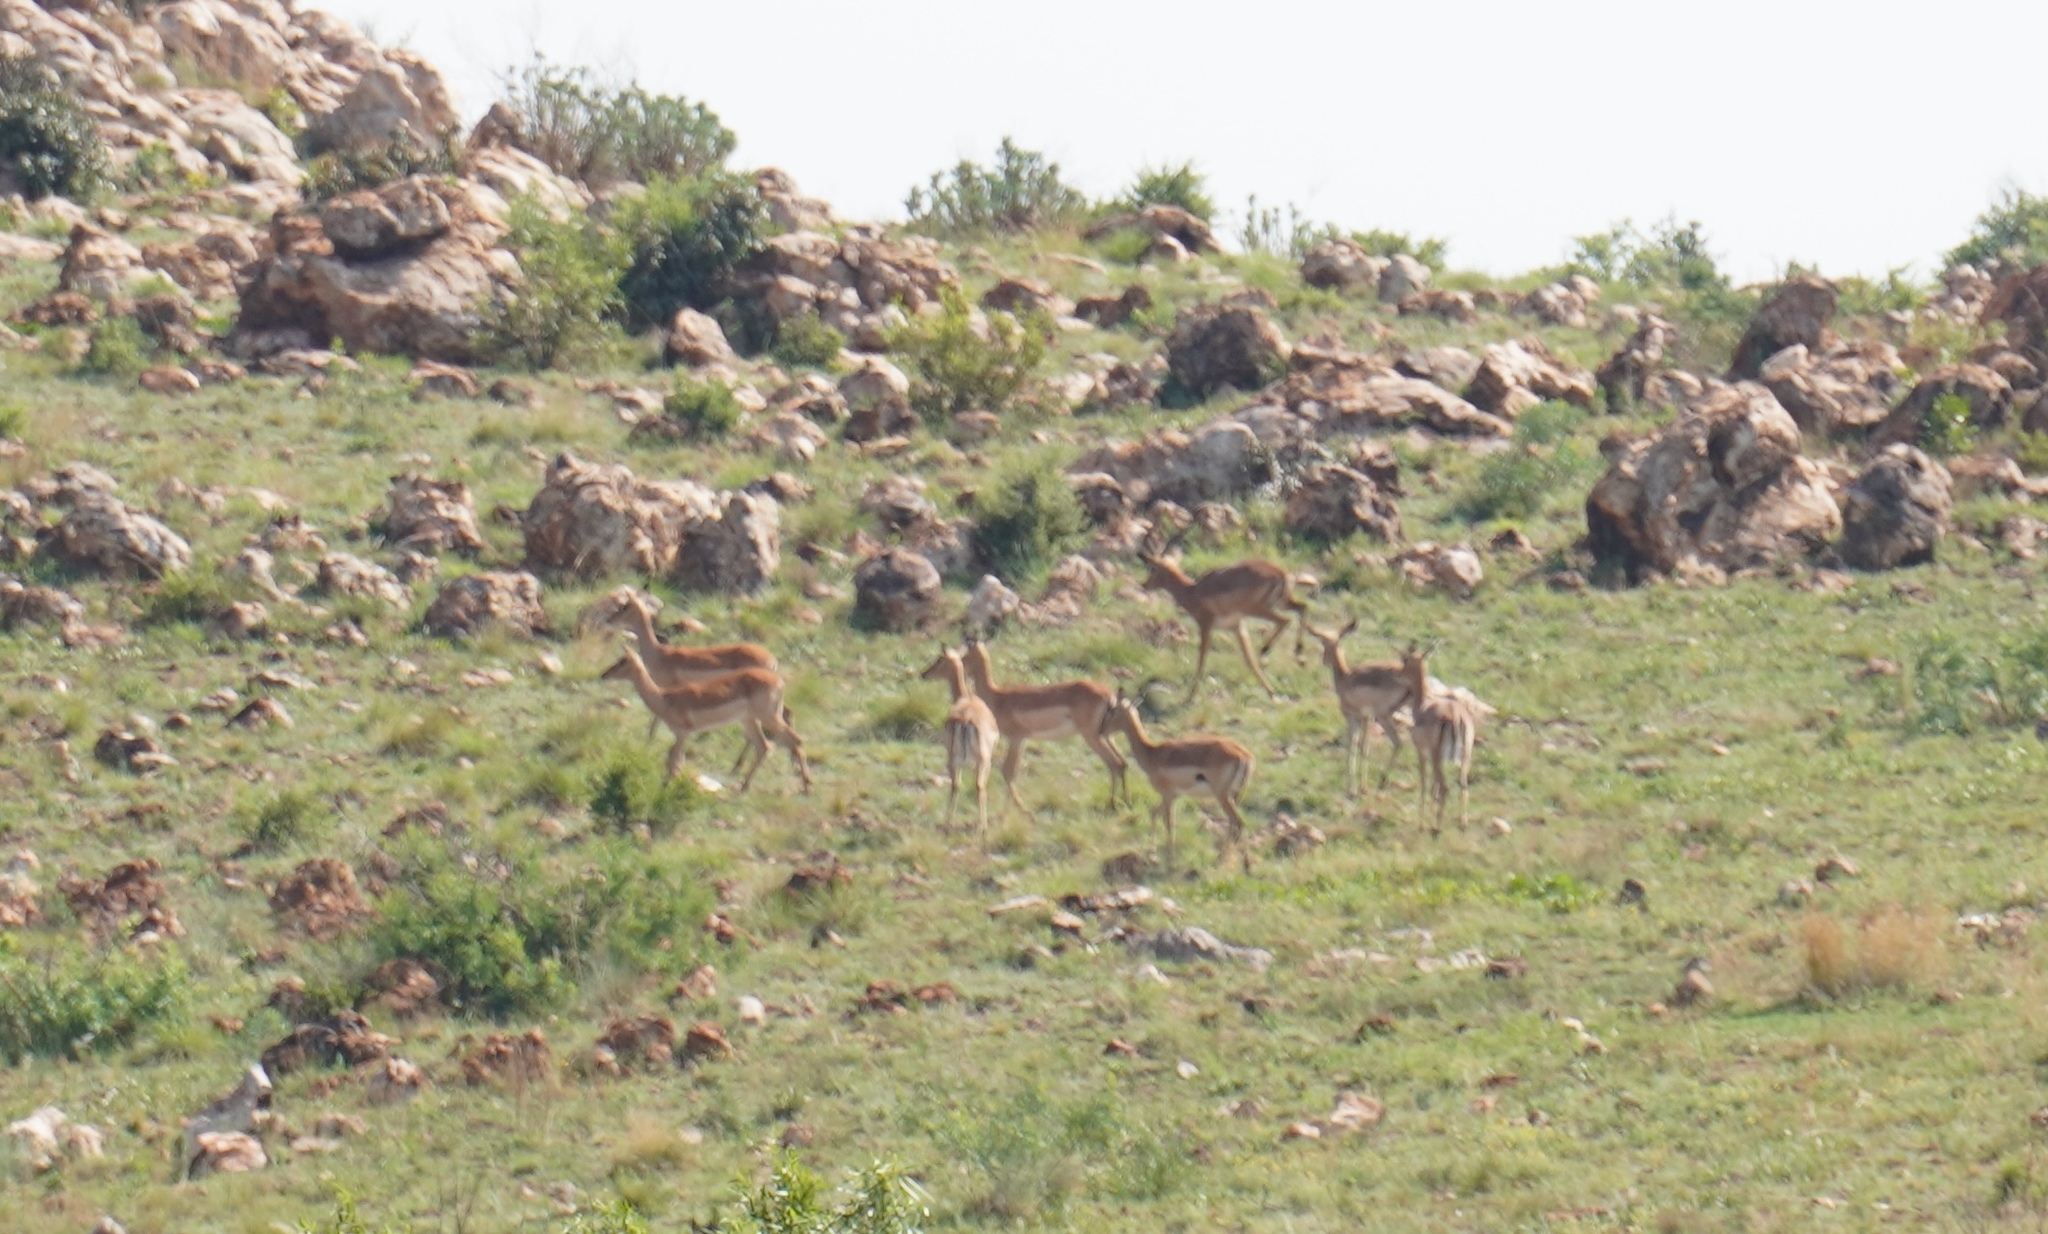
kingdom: Animalia
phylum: Chordata
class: Mammalia
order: Artiodactyla
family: Bovidae
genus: Aepyceros
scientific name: Aepyceros melampus
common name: Impala
